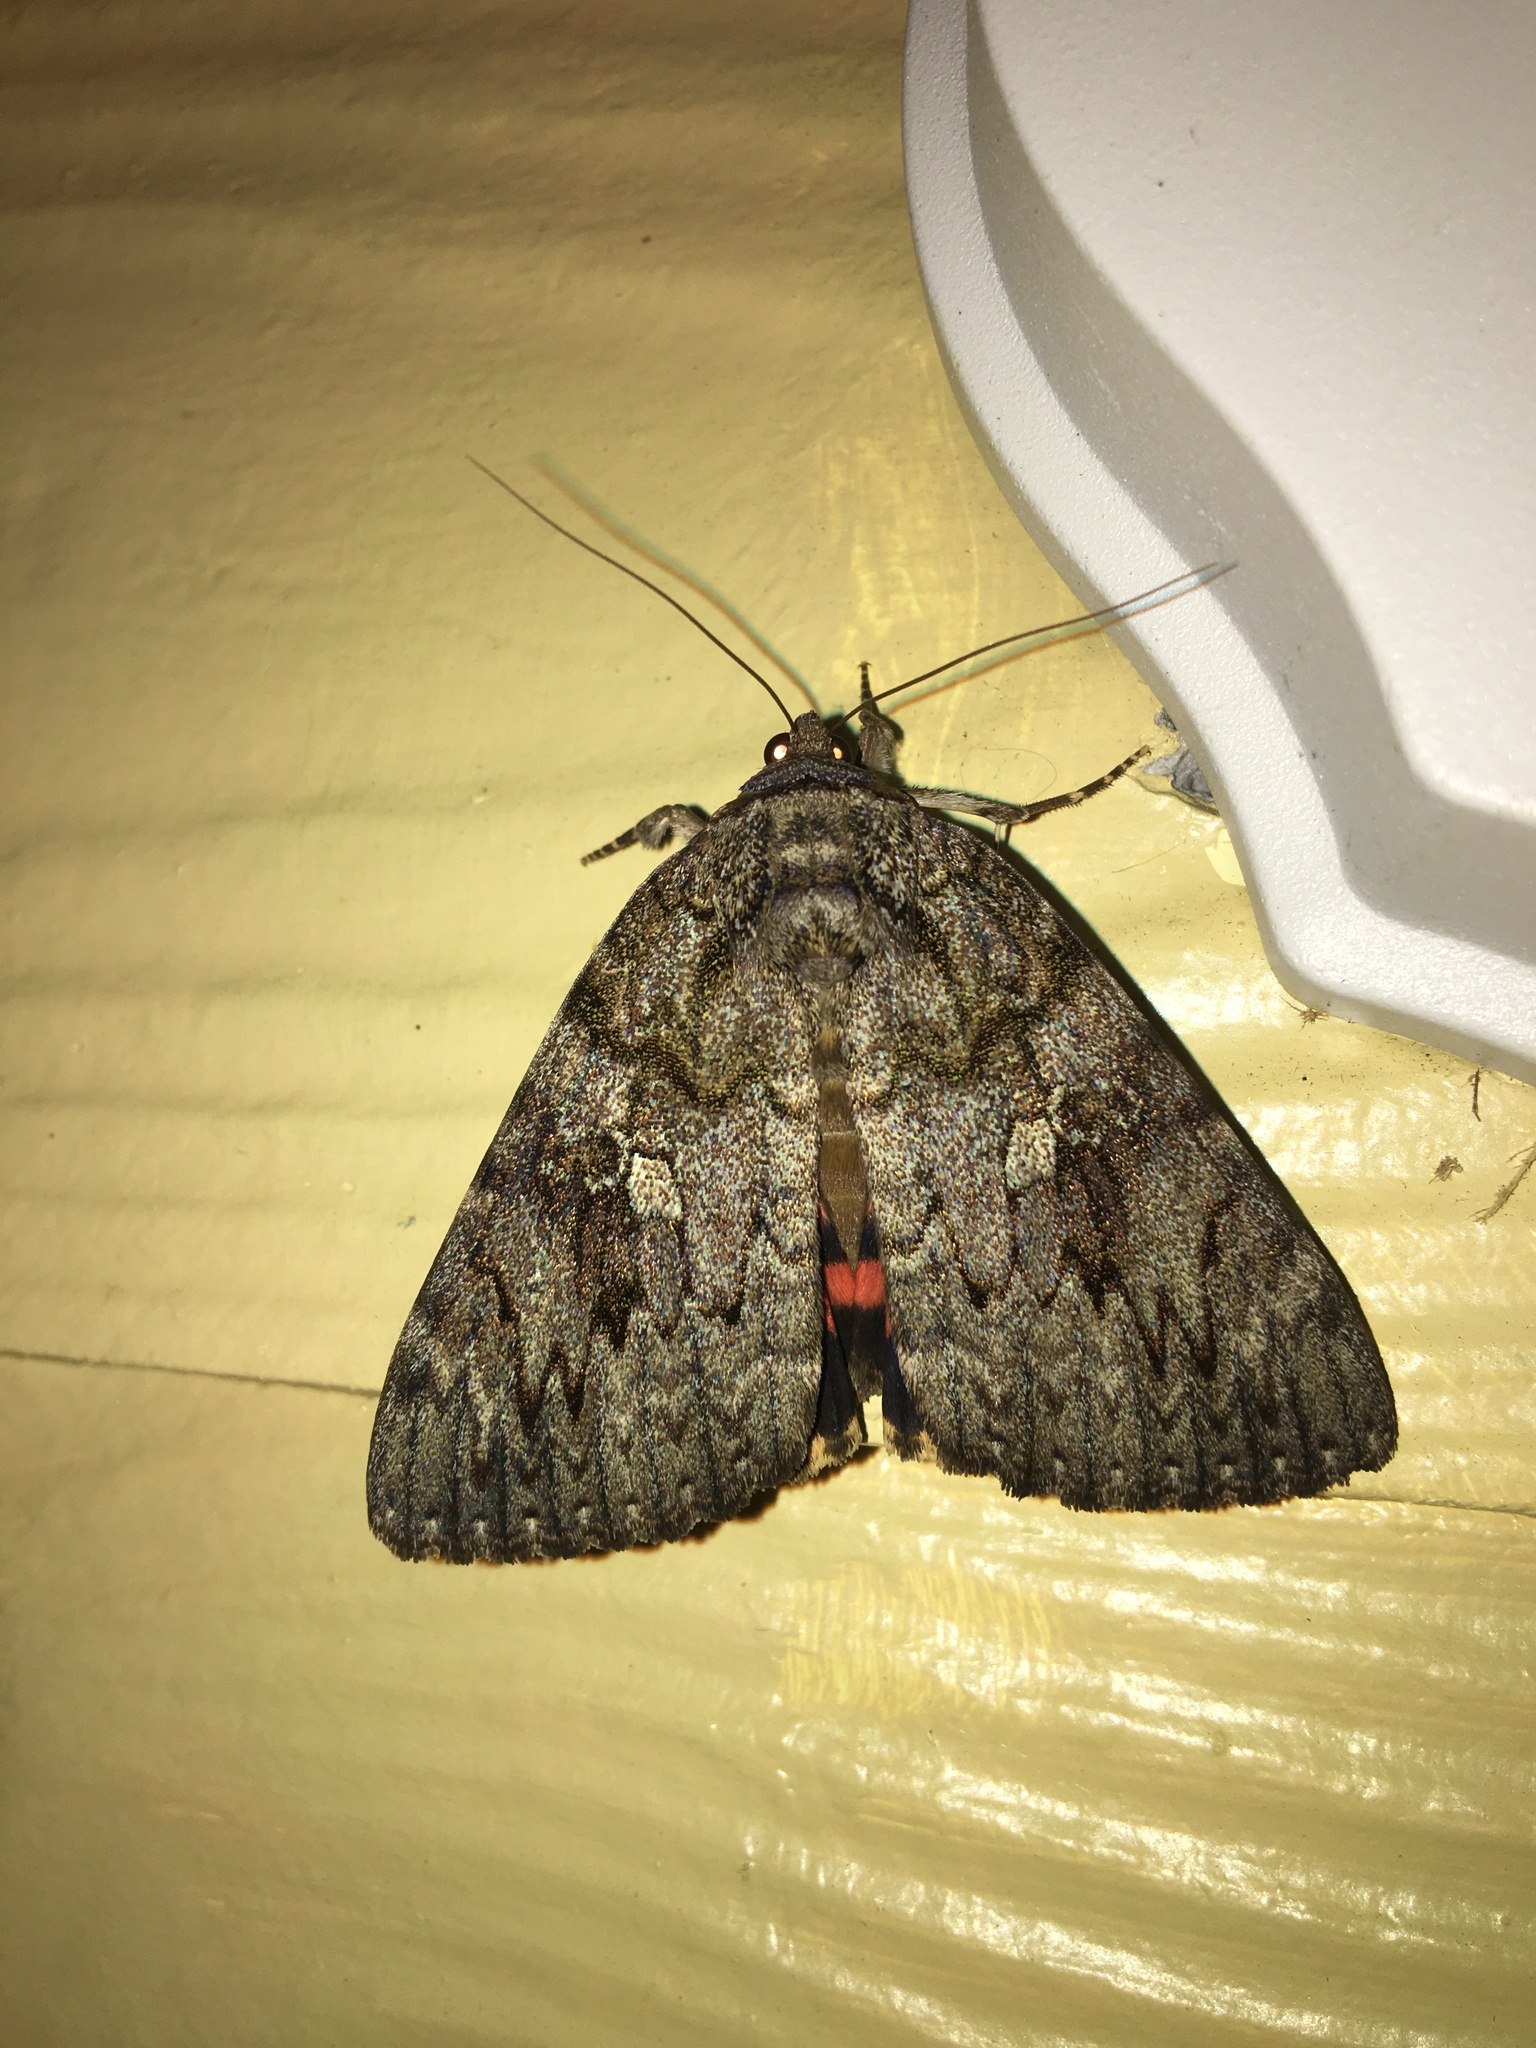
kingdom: Animalia
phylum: Arthropoda
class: Insecta
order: Lepidoptera
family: Erebidae
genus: Catocala
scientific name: Catocala umbrosa
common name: Umber underwing
